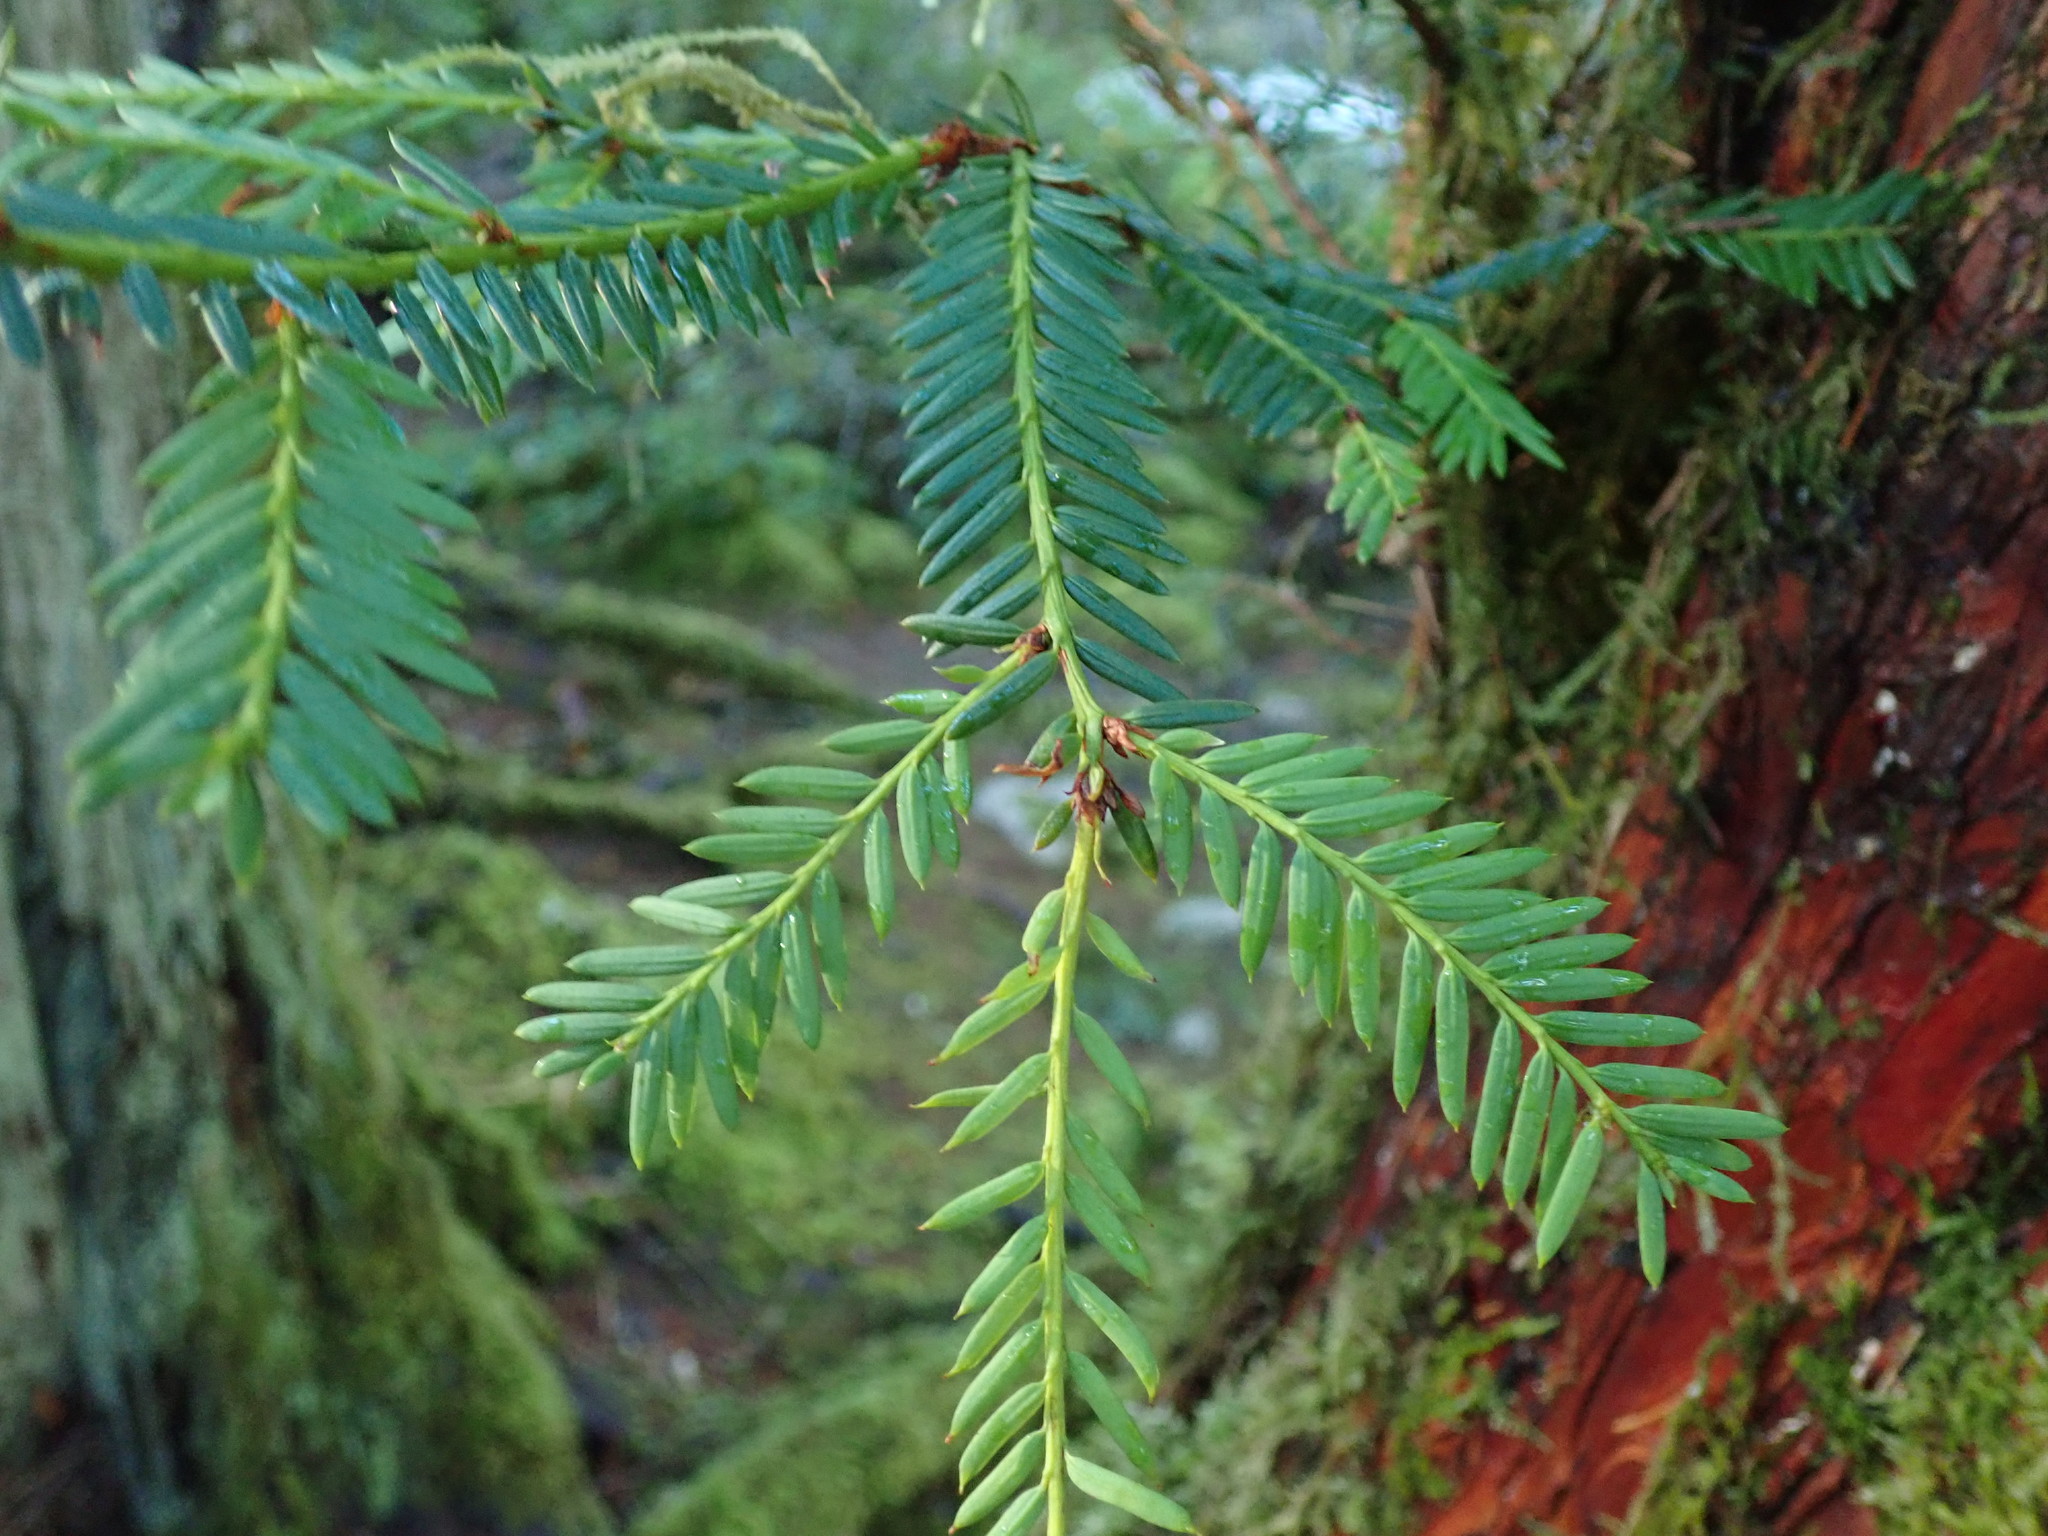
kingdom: Plantae
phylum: Tracheophyta
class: Pinopsida
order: Pinales
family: Taxaceae
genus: Taxus
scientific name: Taxus brevifolia
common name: Pacific yew
